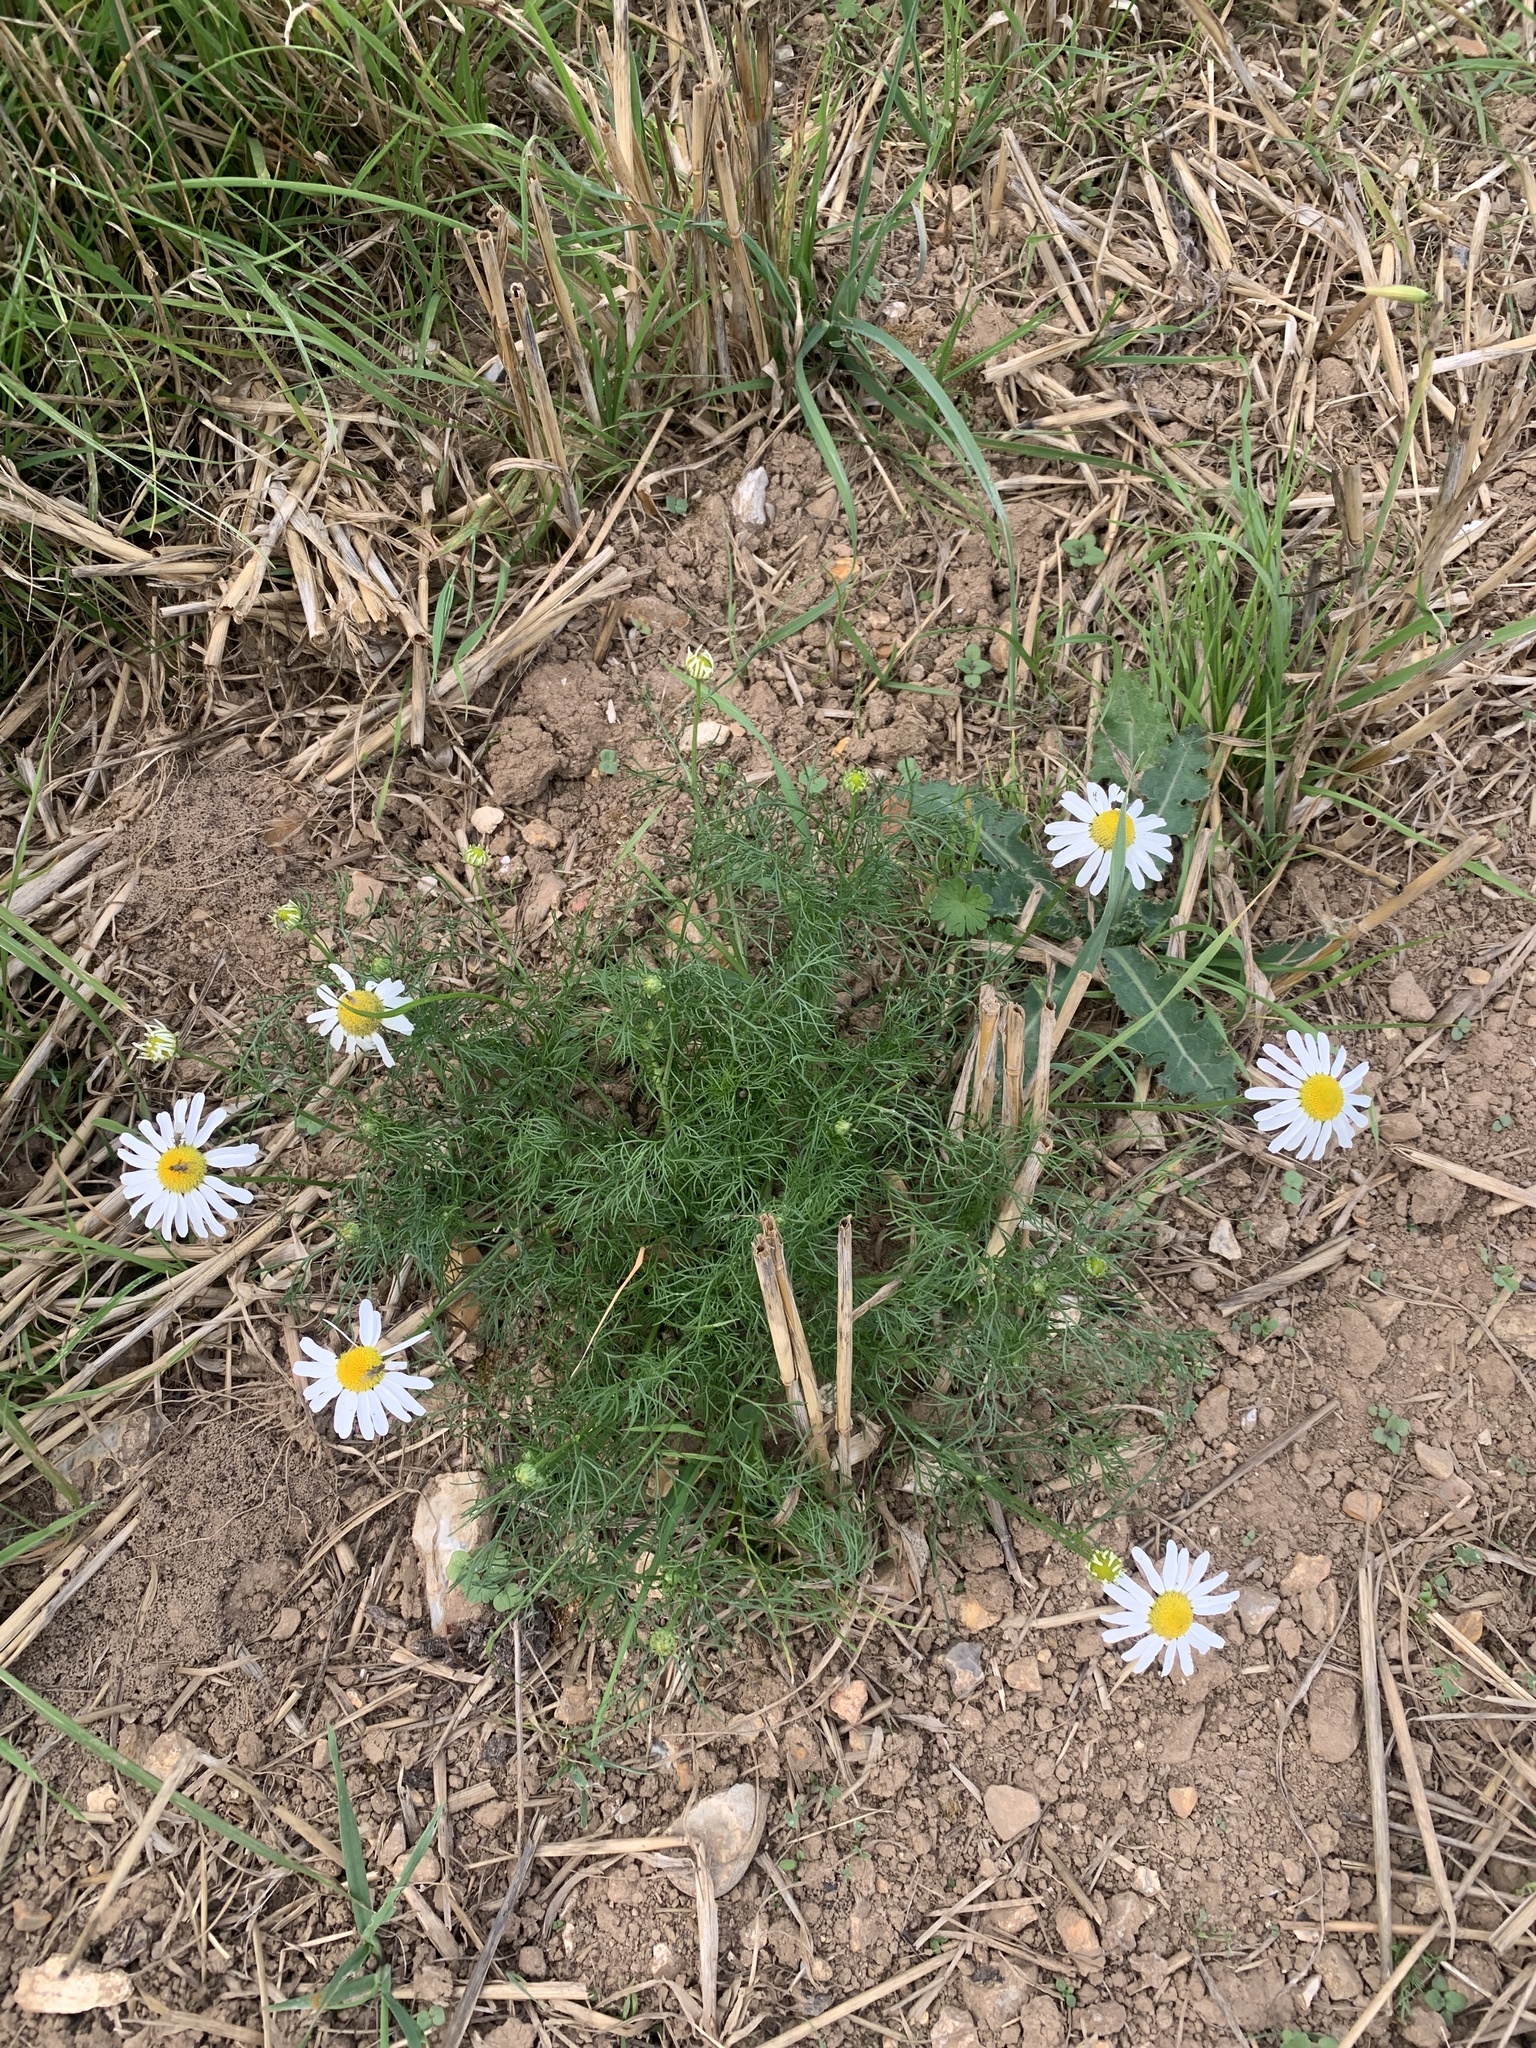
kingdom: Plantae
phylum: Tracheophyta
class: Magnoliopsida
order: Asterales
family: Asteraceae
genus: Tripleurospermum
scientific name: Tripleurospermum inodorum
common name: Scentless mayweed
